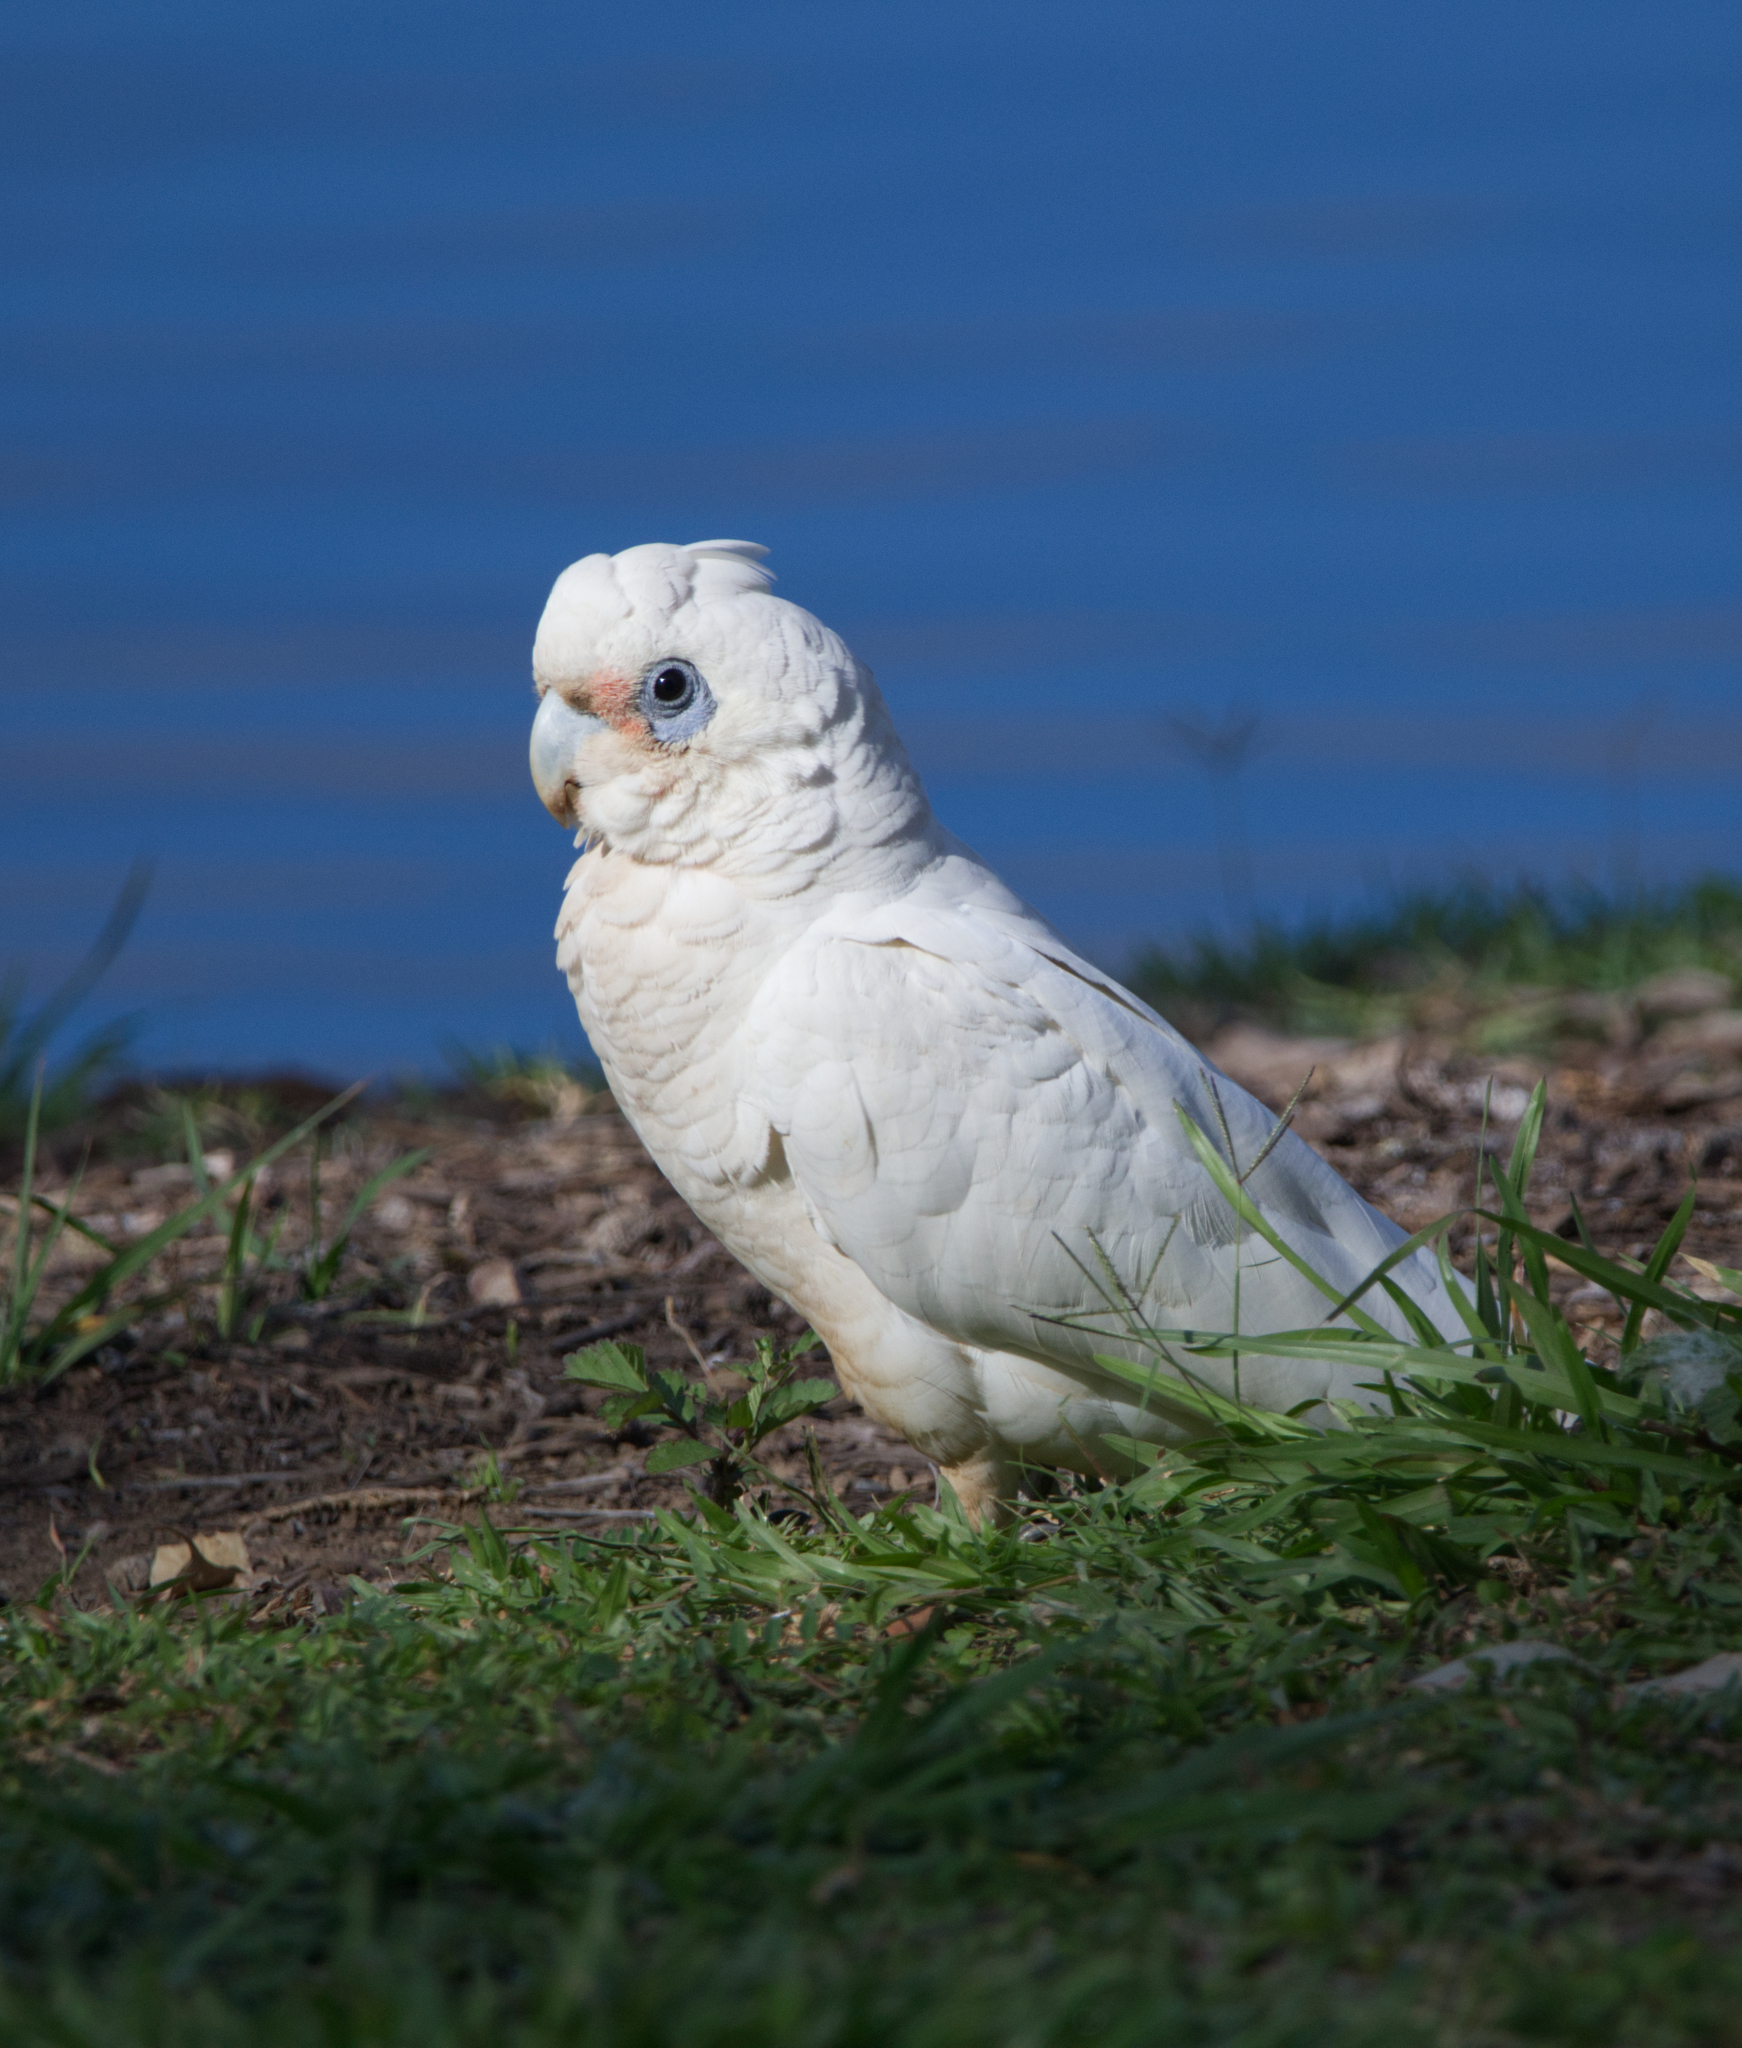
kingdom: Animalia
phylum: Chordata
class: Aves
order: Psittaciformes
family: Psittacidae
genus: Cacatua
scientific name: Cacatua sanguinea
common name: Little corella
